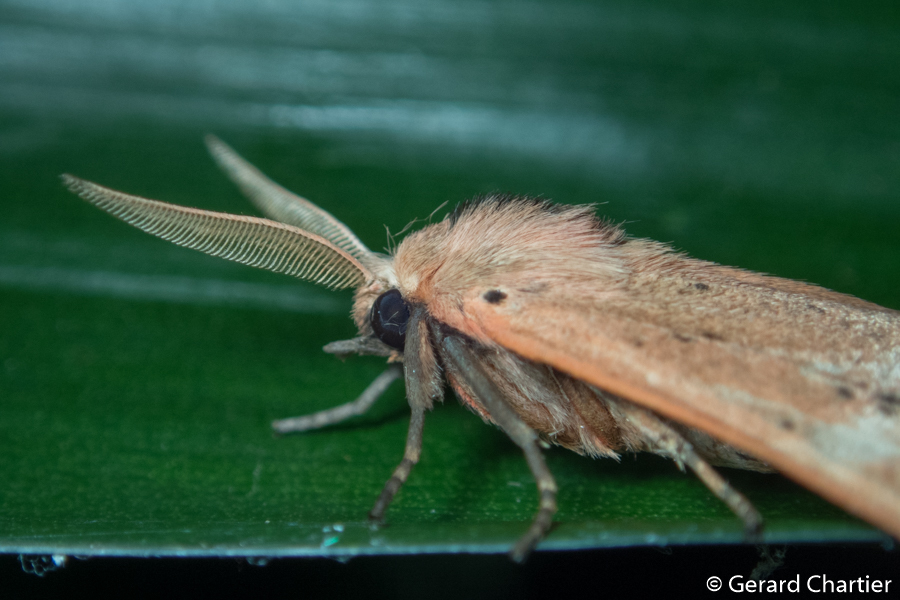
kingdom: Animalia
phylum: Arthropoda
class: Insecta
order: Lepidoptera
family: Erebidae
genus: Spilosoma
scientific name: Spilosoma elmagna
